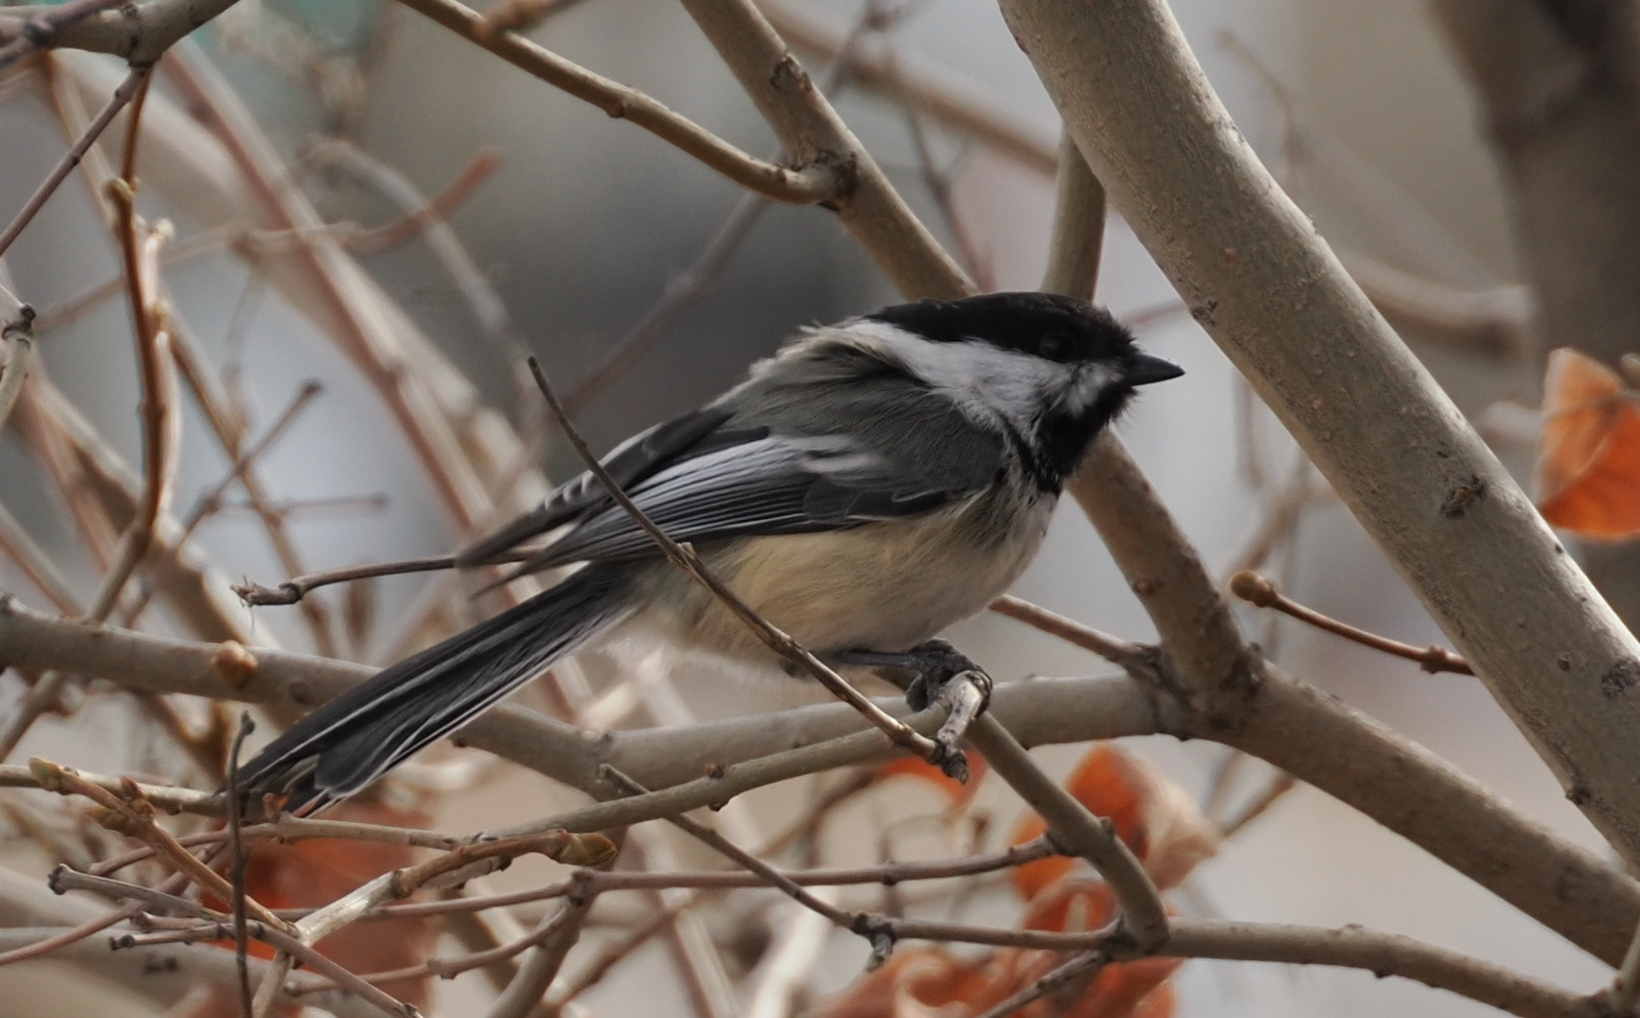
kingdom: Animalia
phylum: Chordata
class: Aves
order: Passeriformes
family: Paridae
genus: Poecile
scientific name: Poecile atricapillus
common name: Black-capped chickadee
